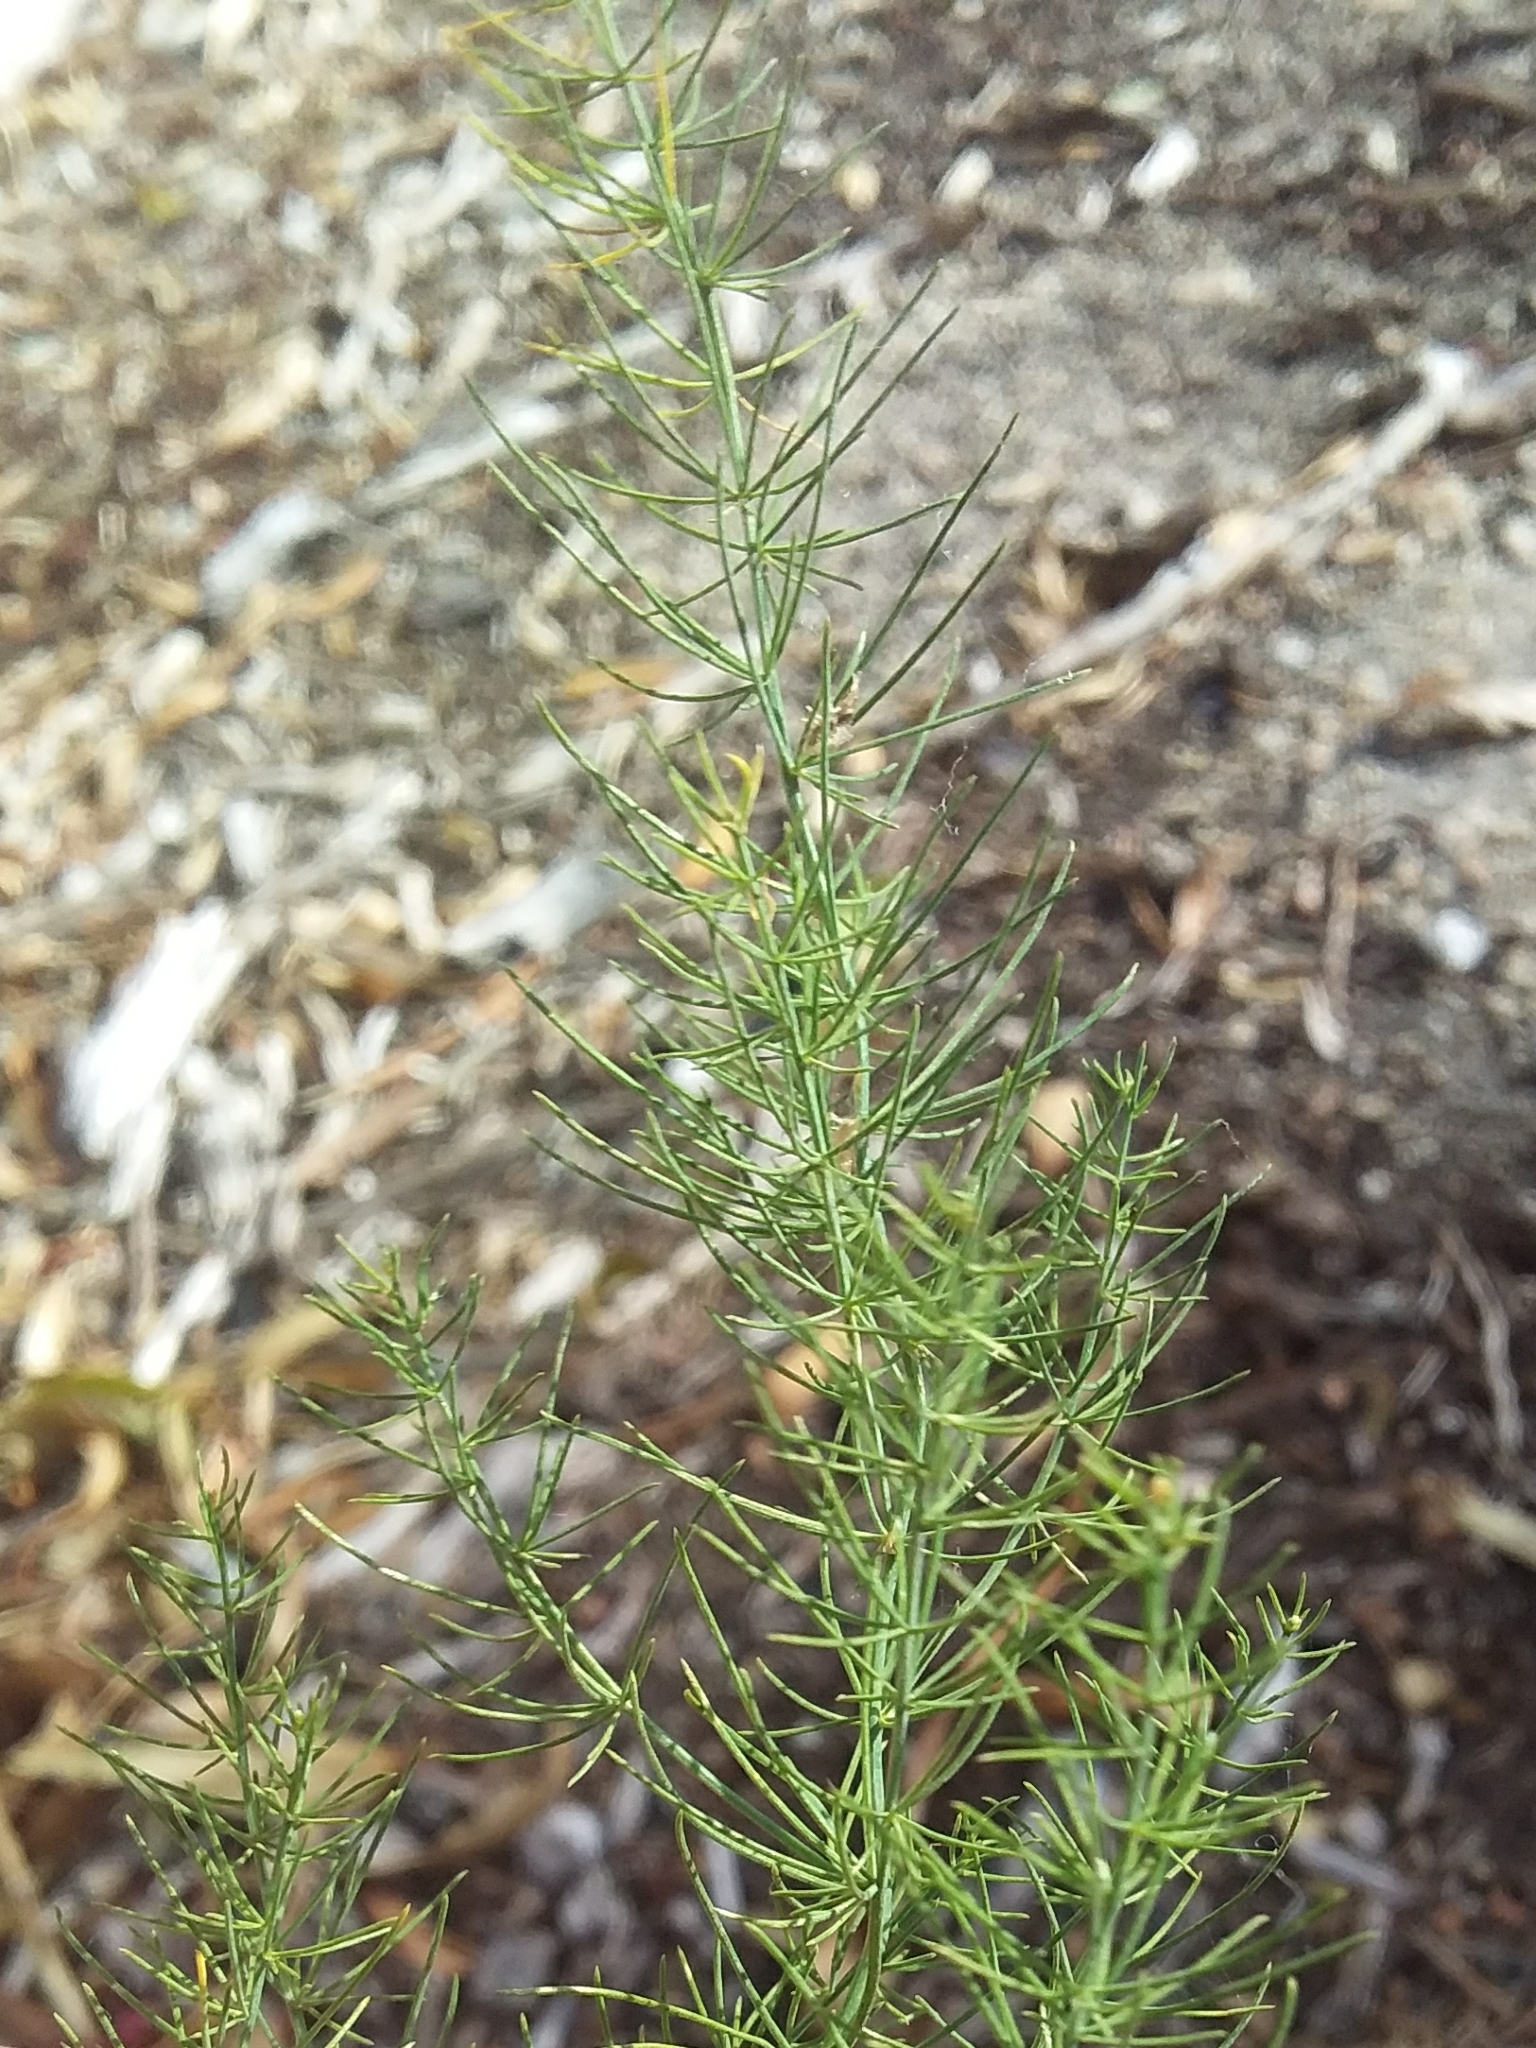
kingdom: Plantae
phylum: Tracheophyta
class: Liliopsida
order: Asparagales
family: Asparagaceae
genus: Asparagus
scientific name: Asparagus officinalis
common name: Garden asparagus
